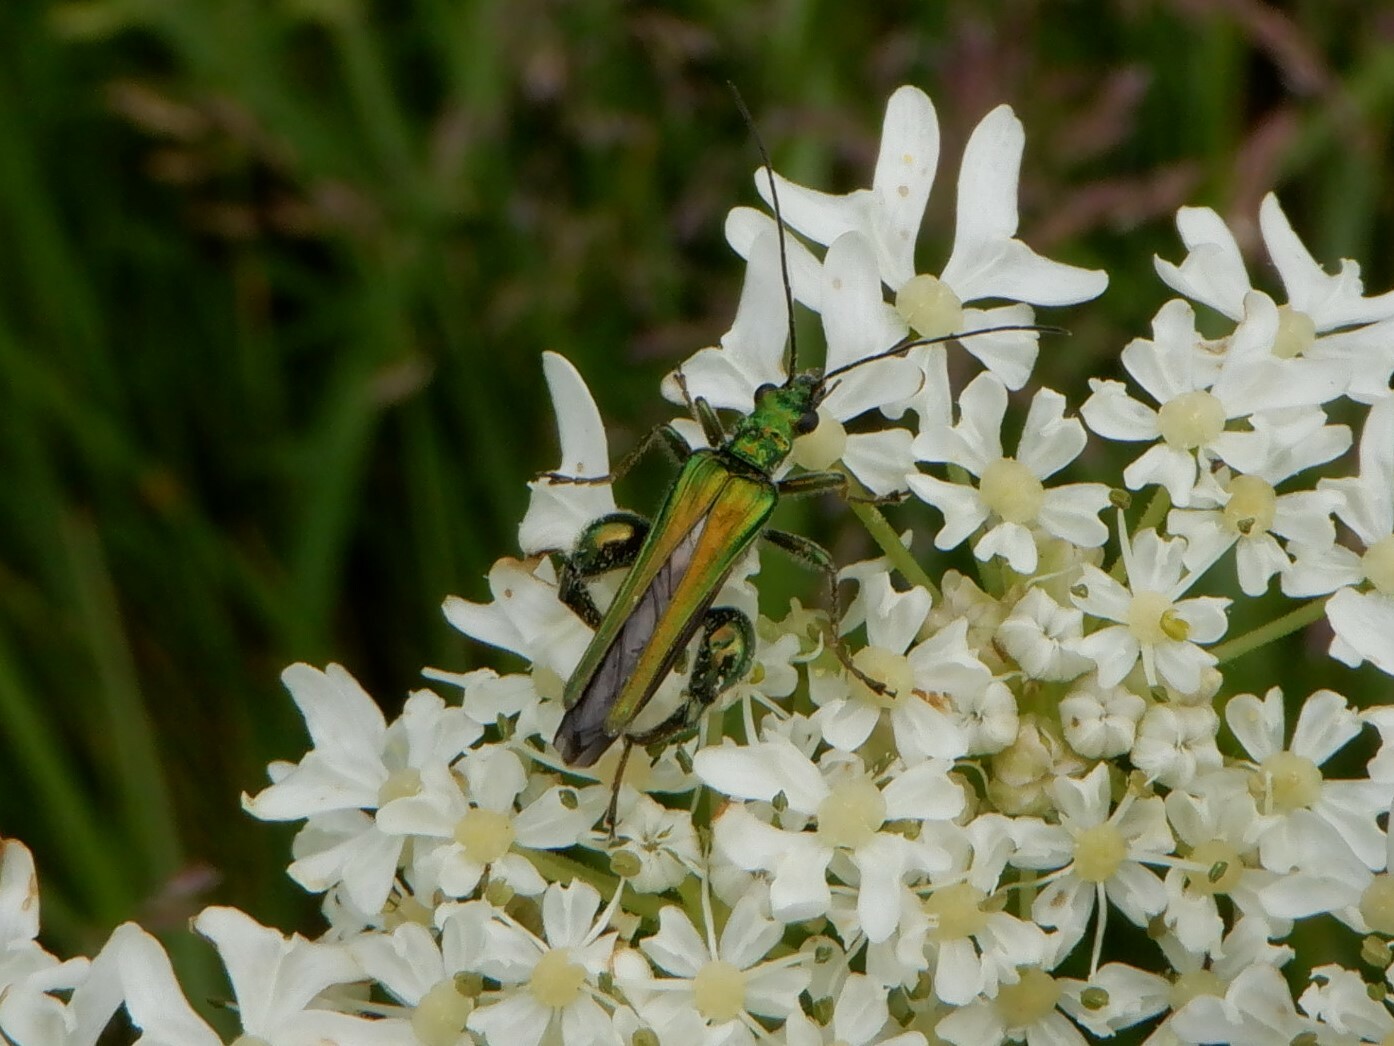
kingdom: Animalia
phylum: Arthropoda
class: Insecta
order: Coleoptera
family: Oedemeridae
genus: Oedemera
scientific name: Oedemera nobilis
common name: Swollen-thighed beetle
